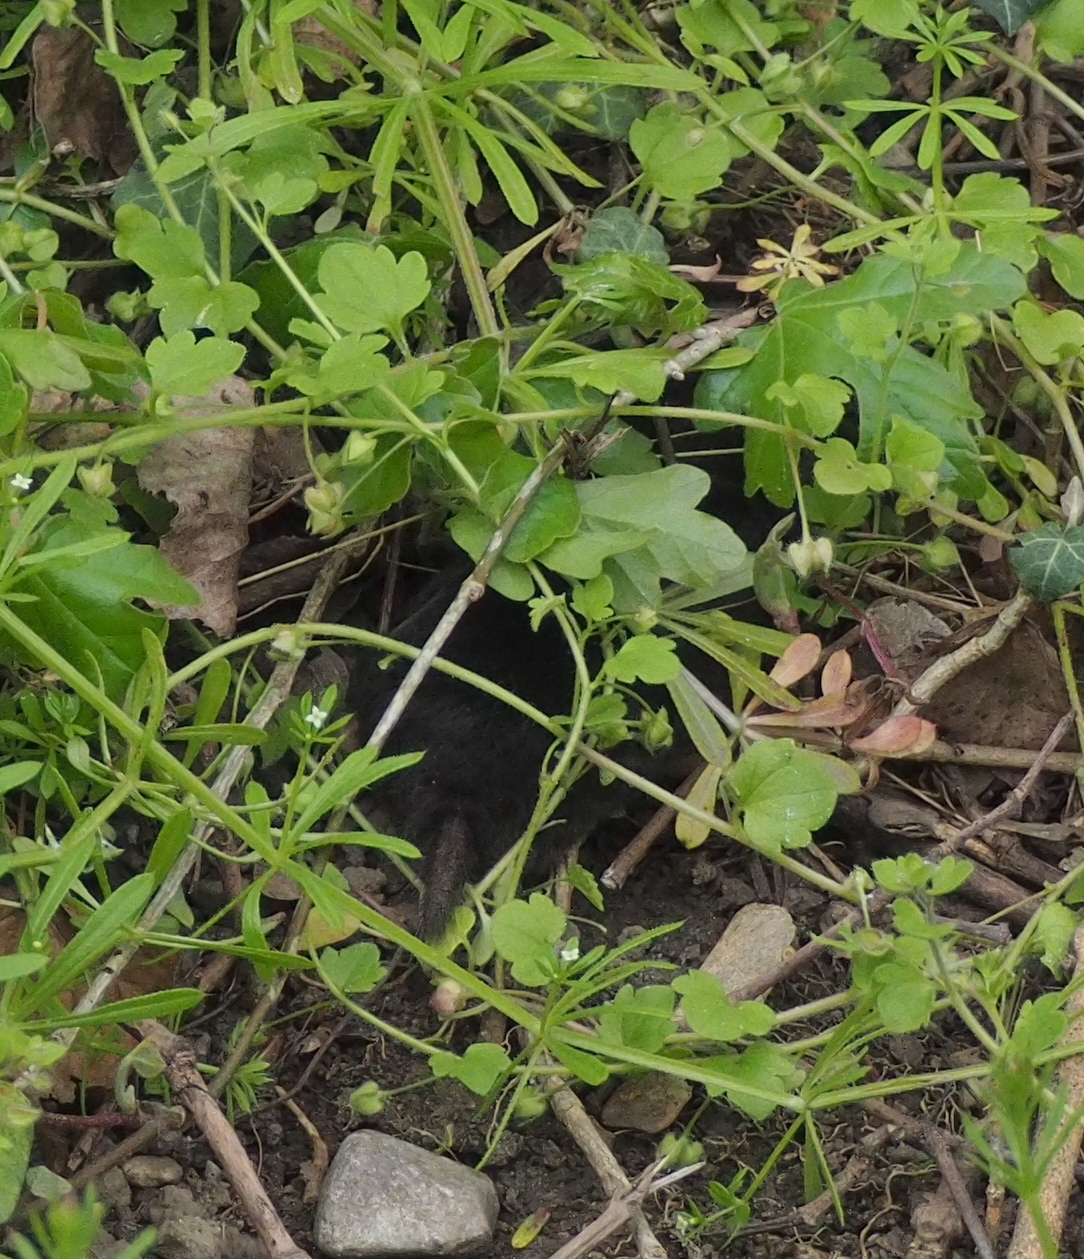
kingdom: Animalia
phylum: Chordata
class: Mammalia
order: Soricomorpha
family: Talpidae
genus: Talpa
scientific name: Talpa europaea
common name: European mole
